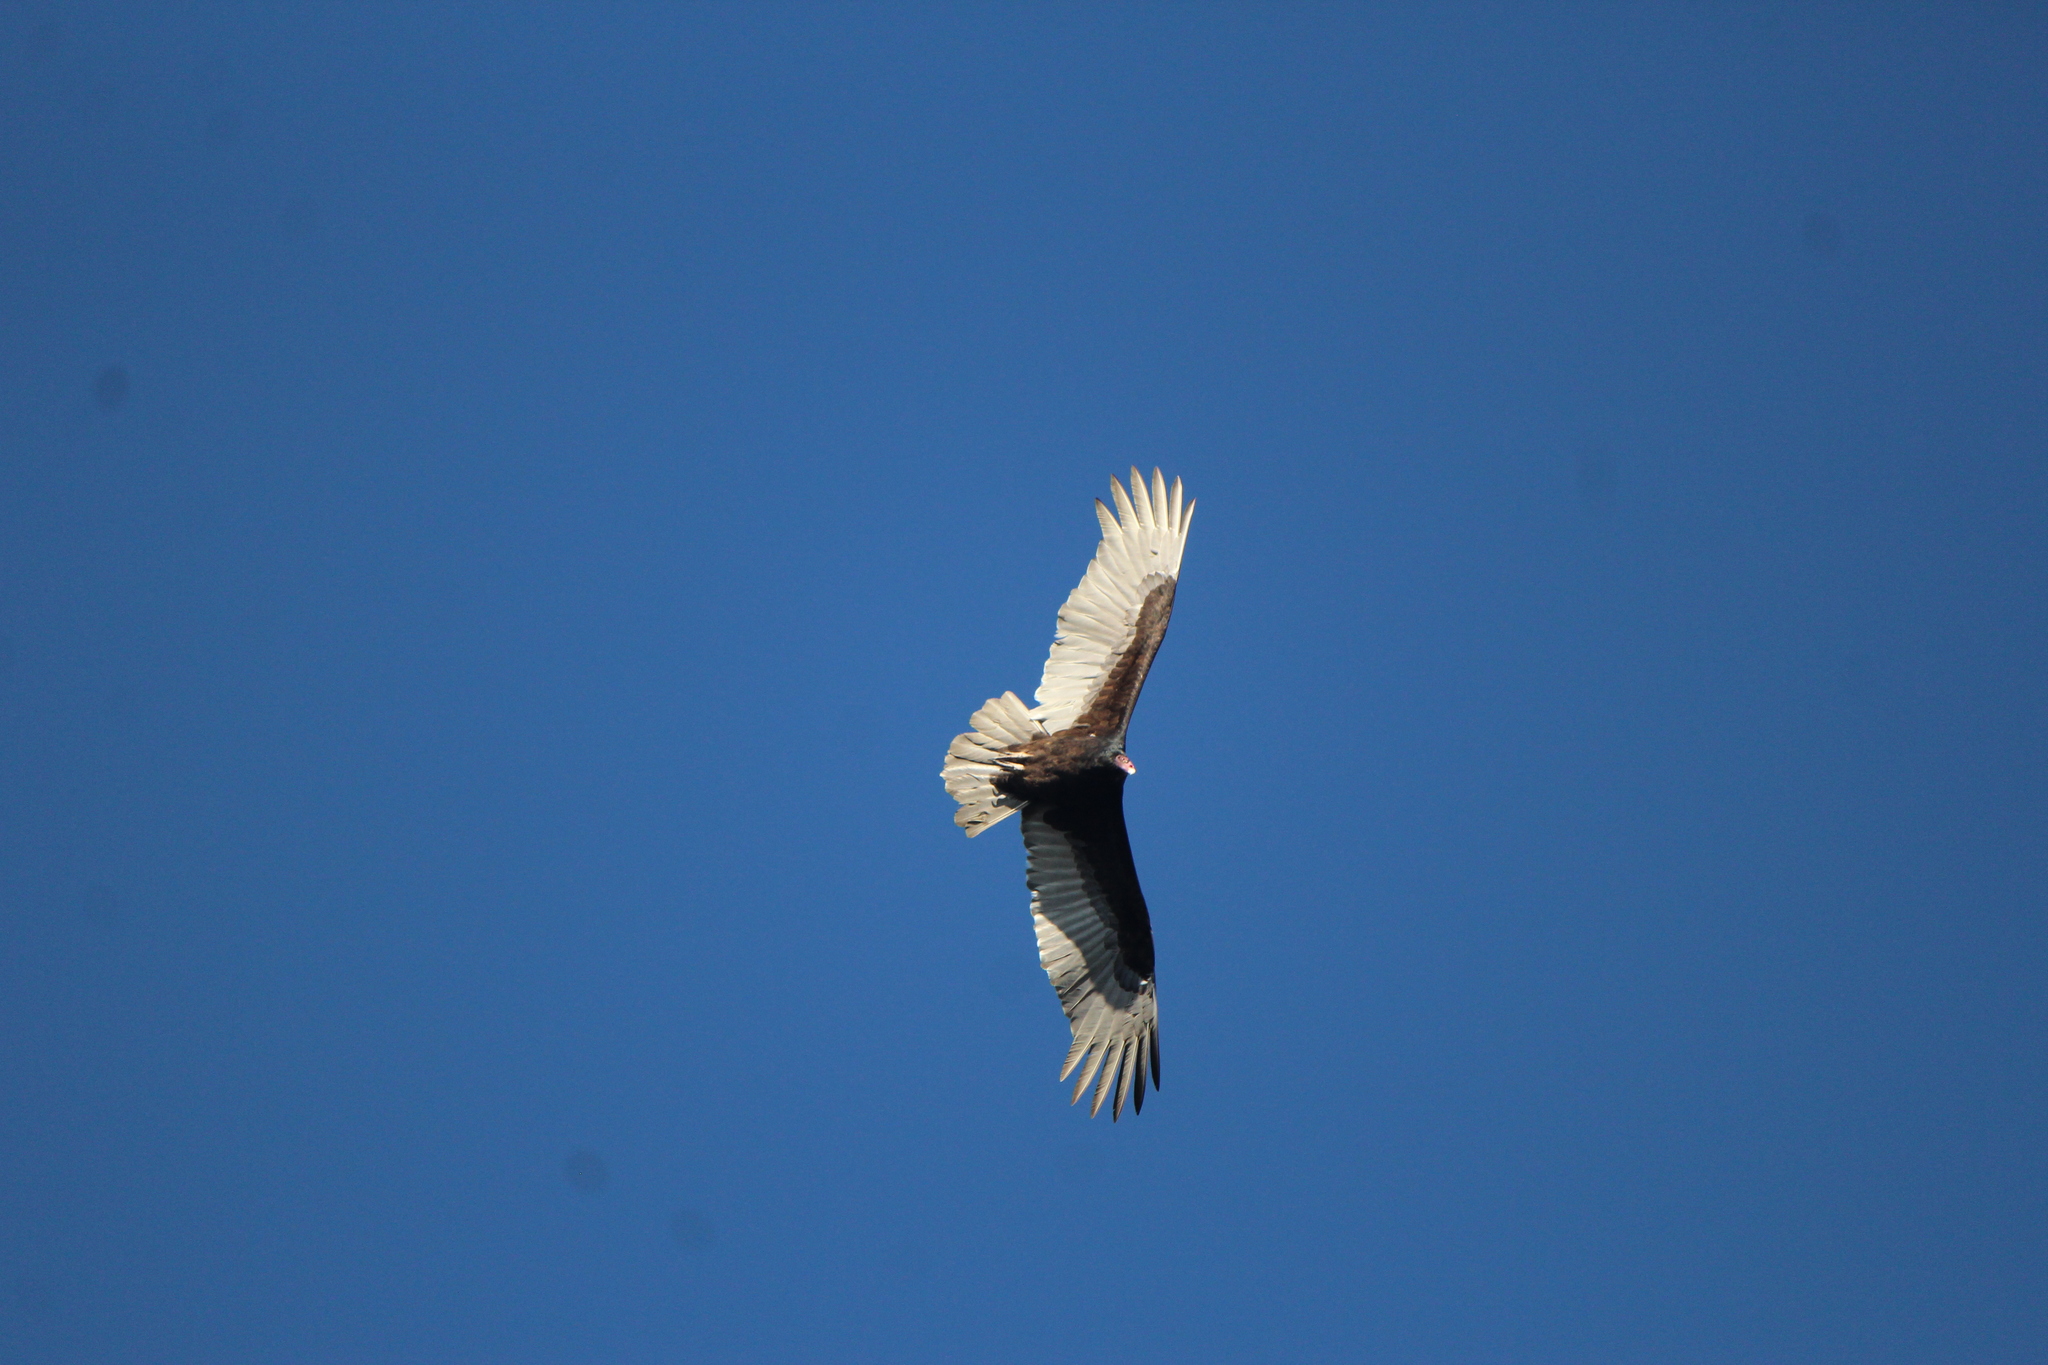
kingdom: Animalia
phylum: Chordata
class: Aves
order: Accipitriformes
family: Cathartidae
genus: Cathartes
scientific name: Cathartes aura
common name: Turkey vulture
